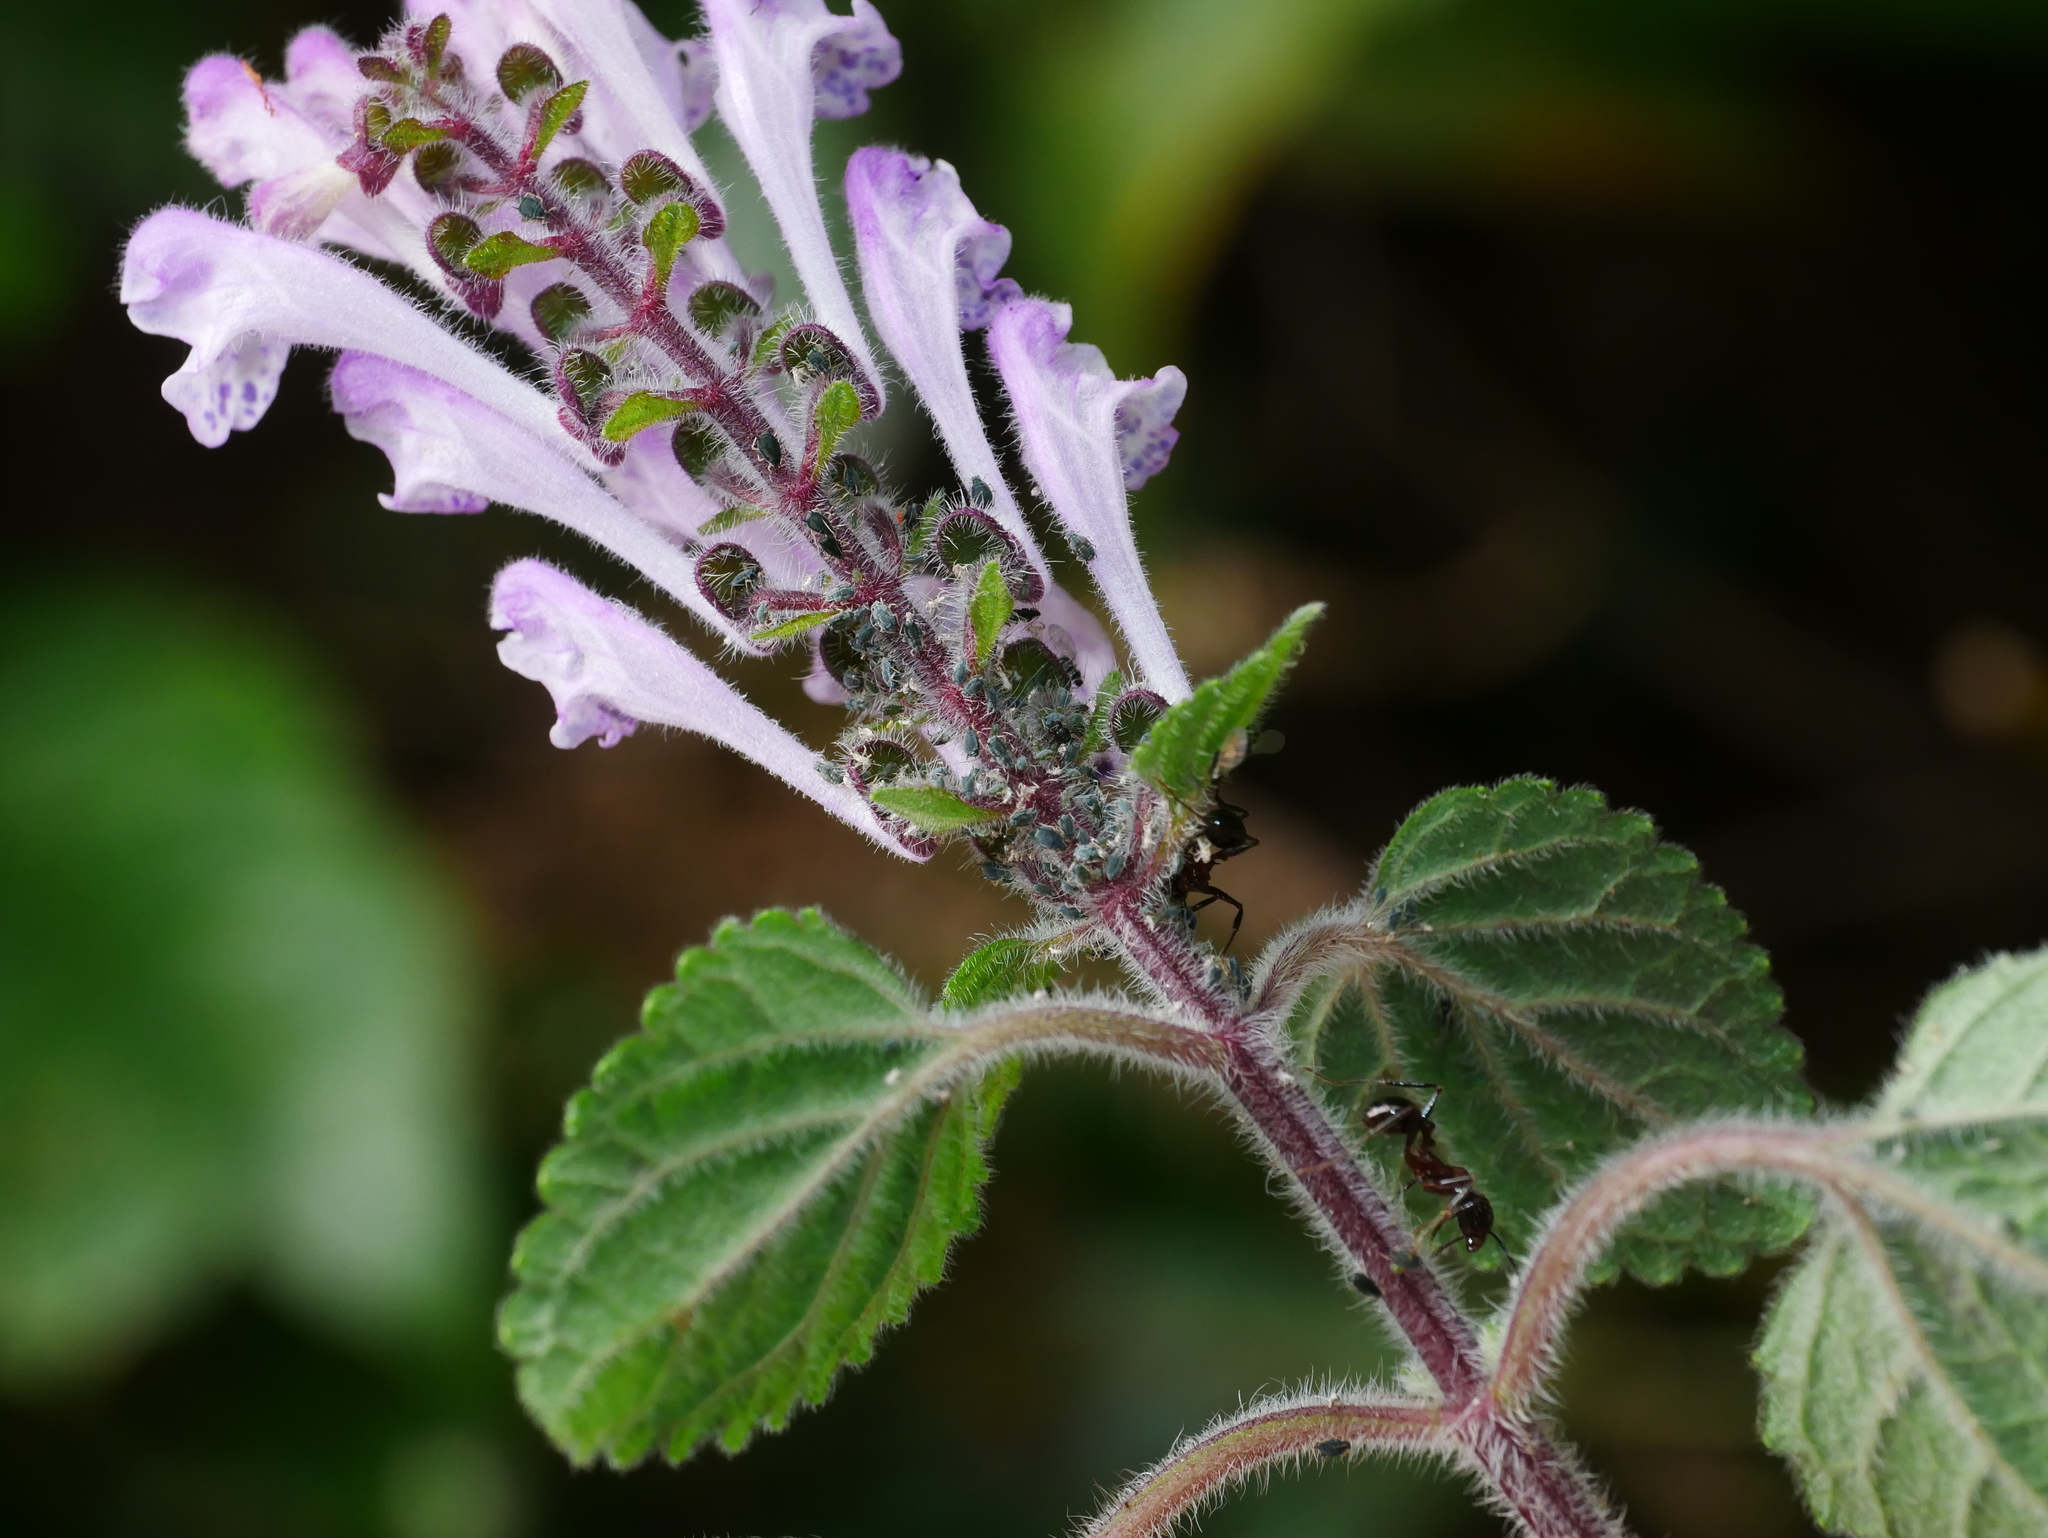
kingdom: Plantae
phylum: Tracheophyta
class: Magnoliopsida
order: Lamiales
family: Lamiaceae
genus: Scutellaria
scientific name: Scutellaria indica
